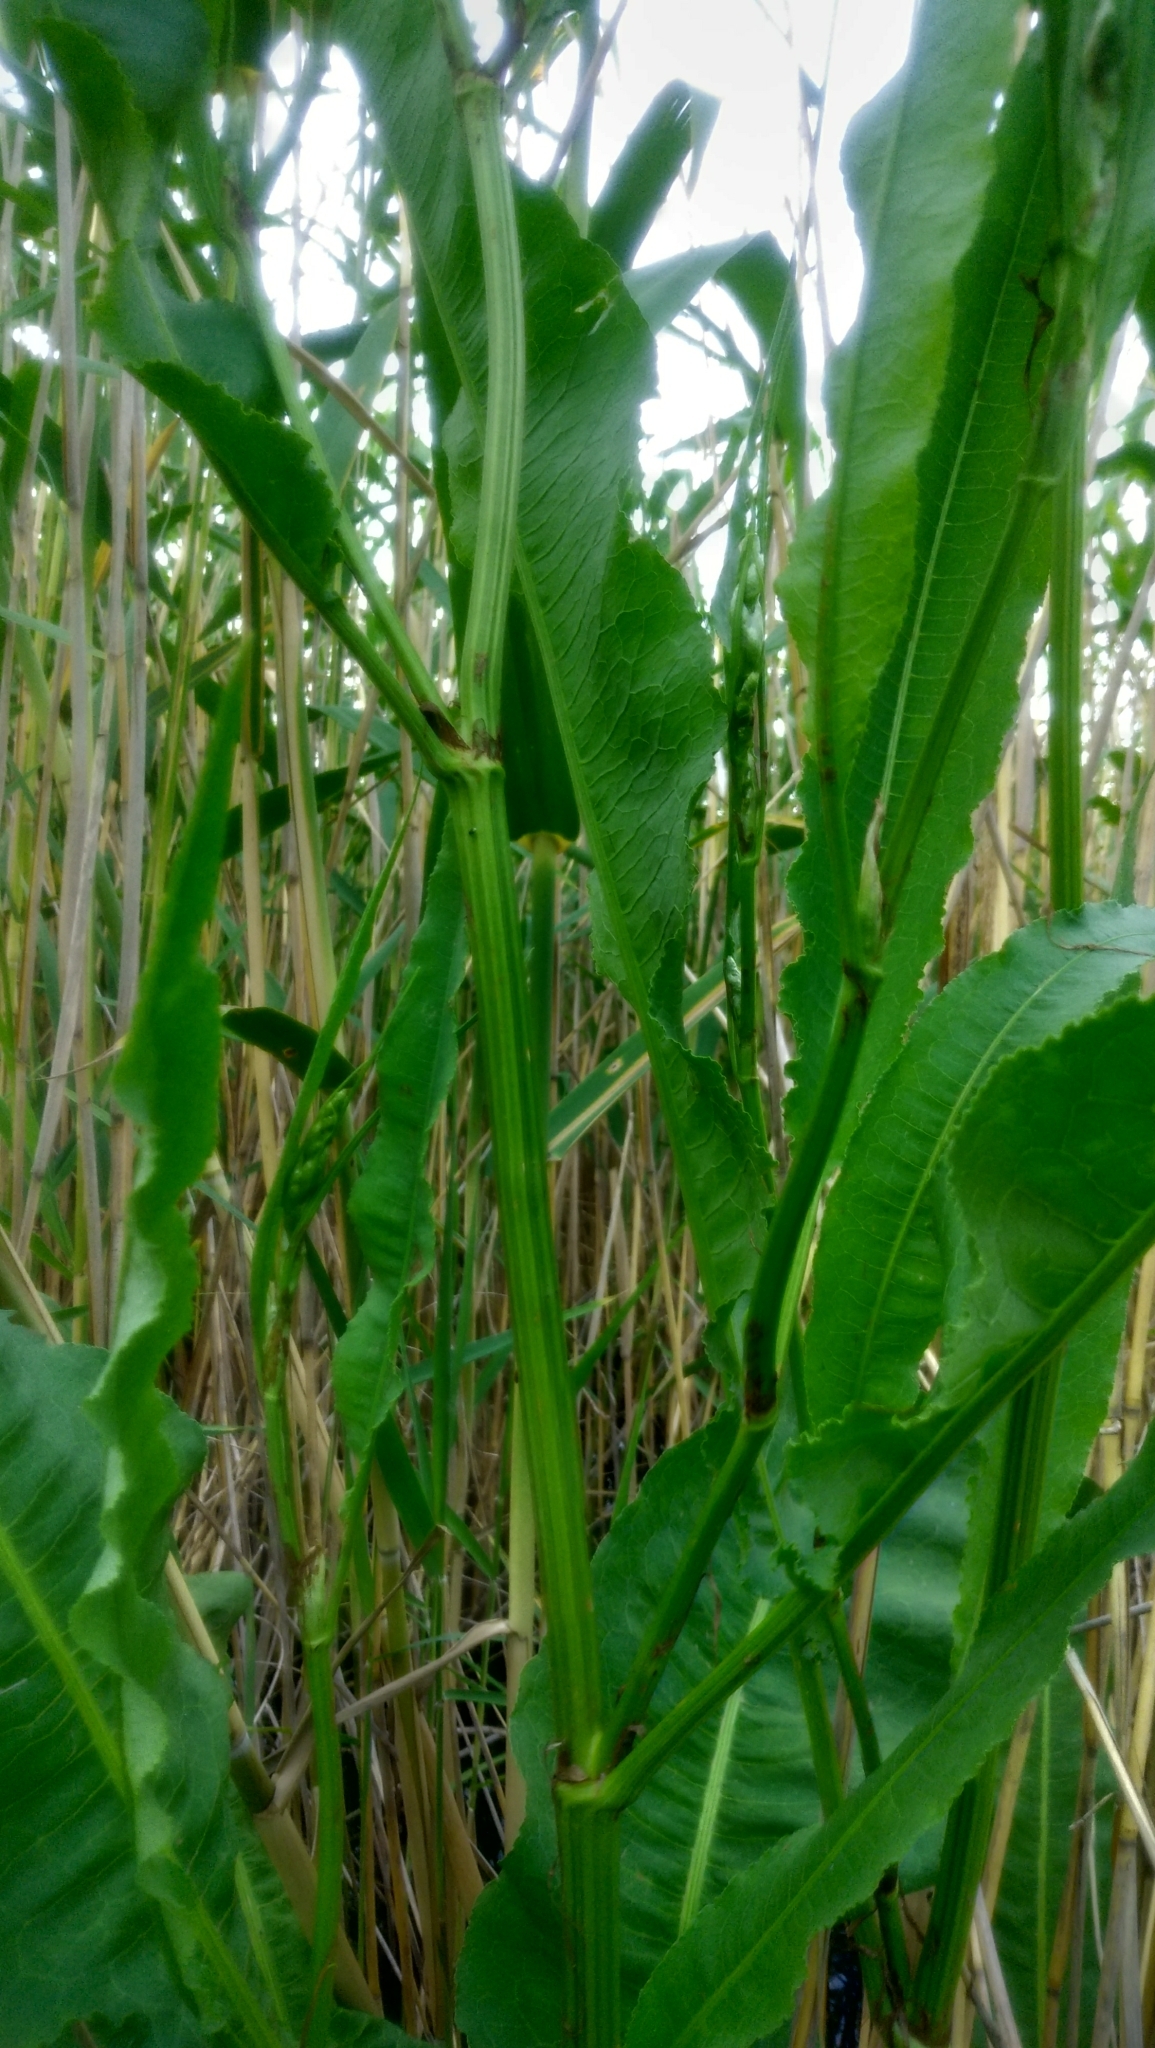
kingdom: Plantae
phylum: Tracheophyta
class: Magnoliopsida
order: Caryophyllales
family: Polygonaceae
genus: Rumex
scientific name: Rumex hydrolapathum
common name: Water dock
